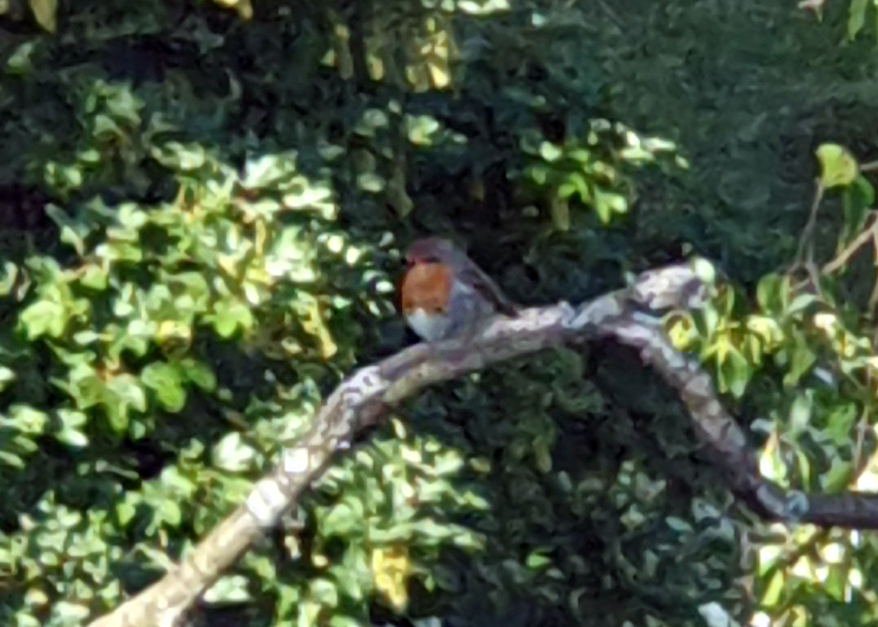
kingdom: Animalia
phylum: Chordata
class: Aves
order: Passeriformes
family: Muscicapidae
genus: Erithacus
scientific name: Erithacus rubecula
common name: European robin
